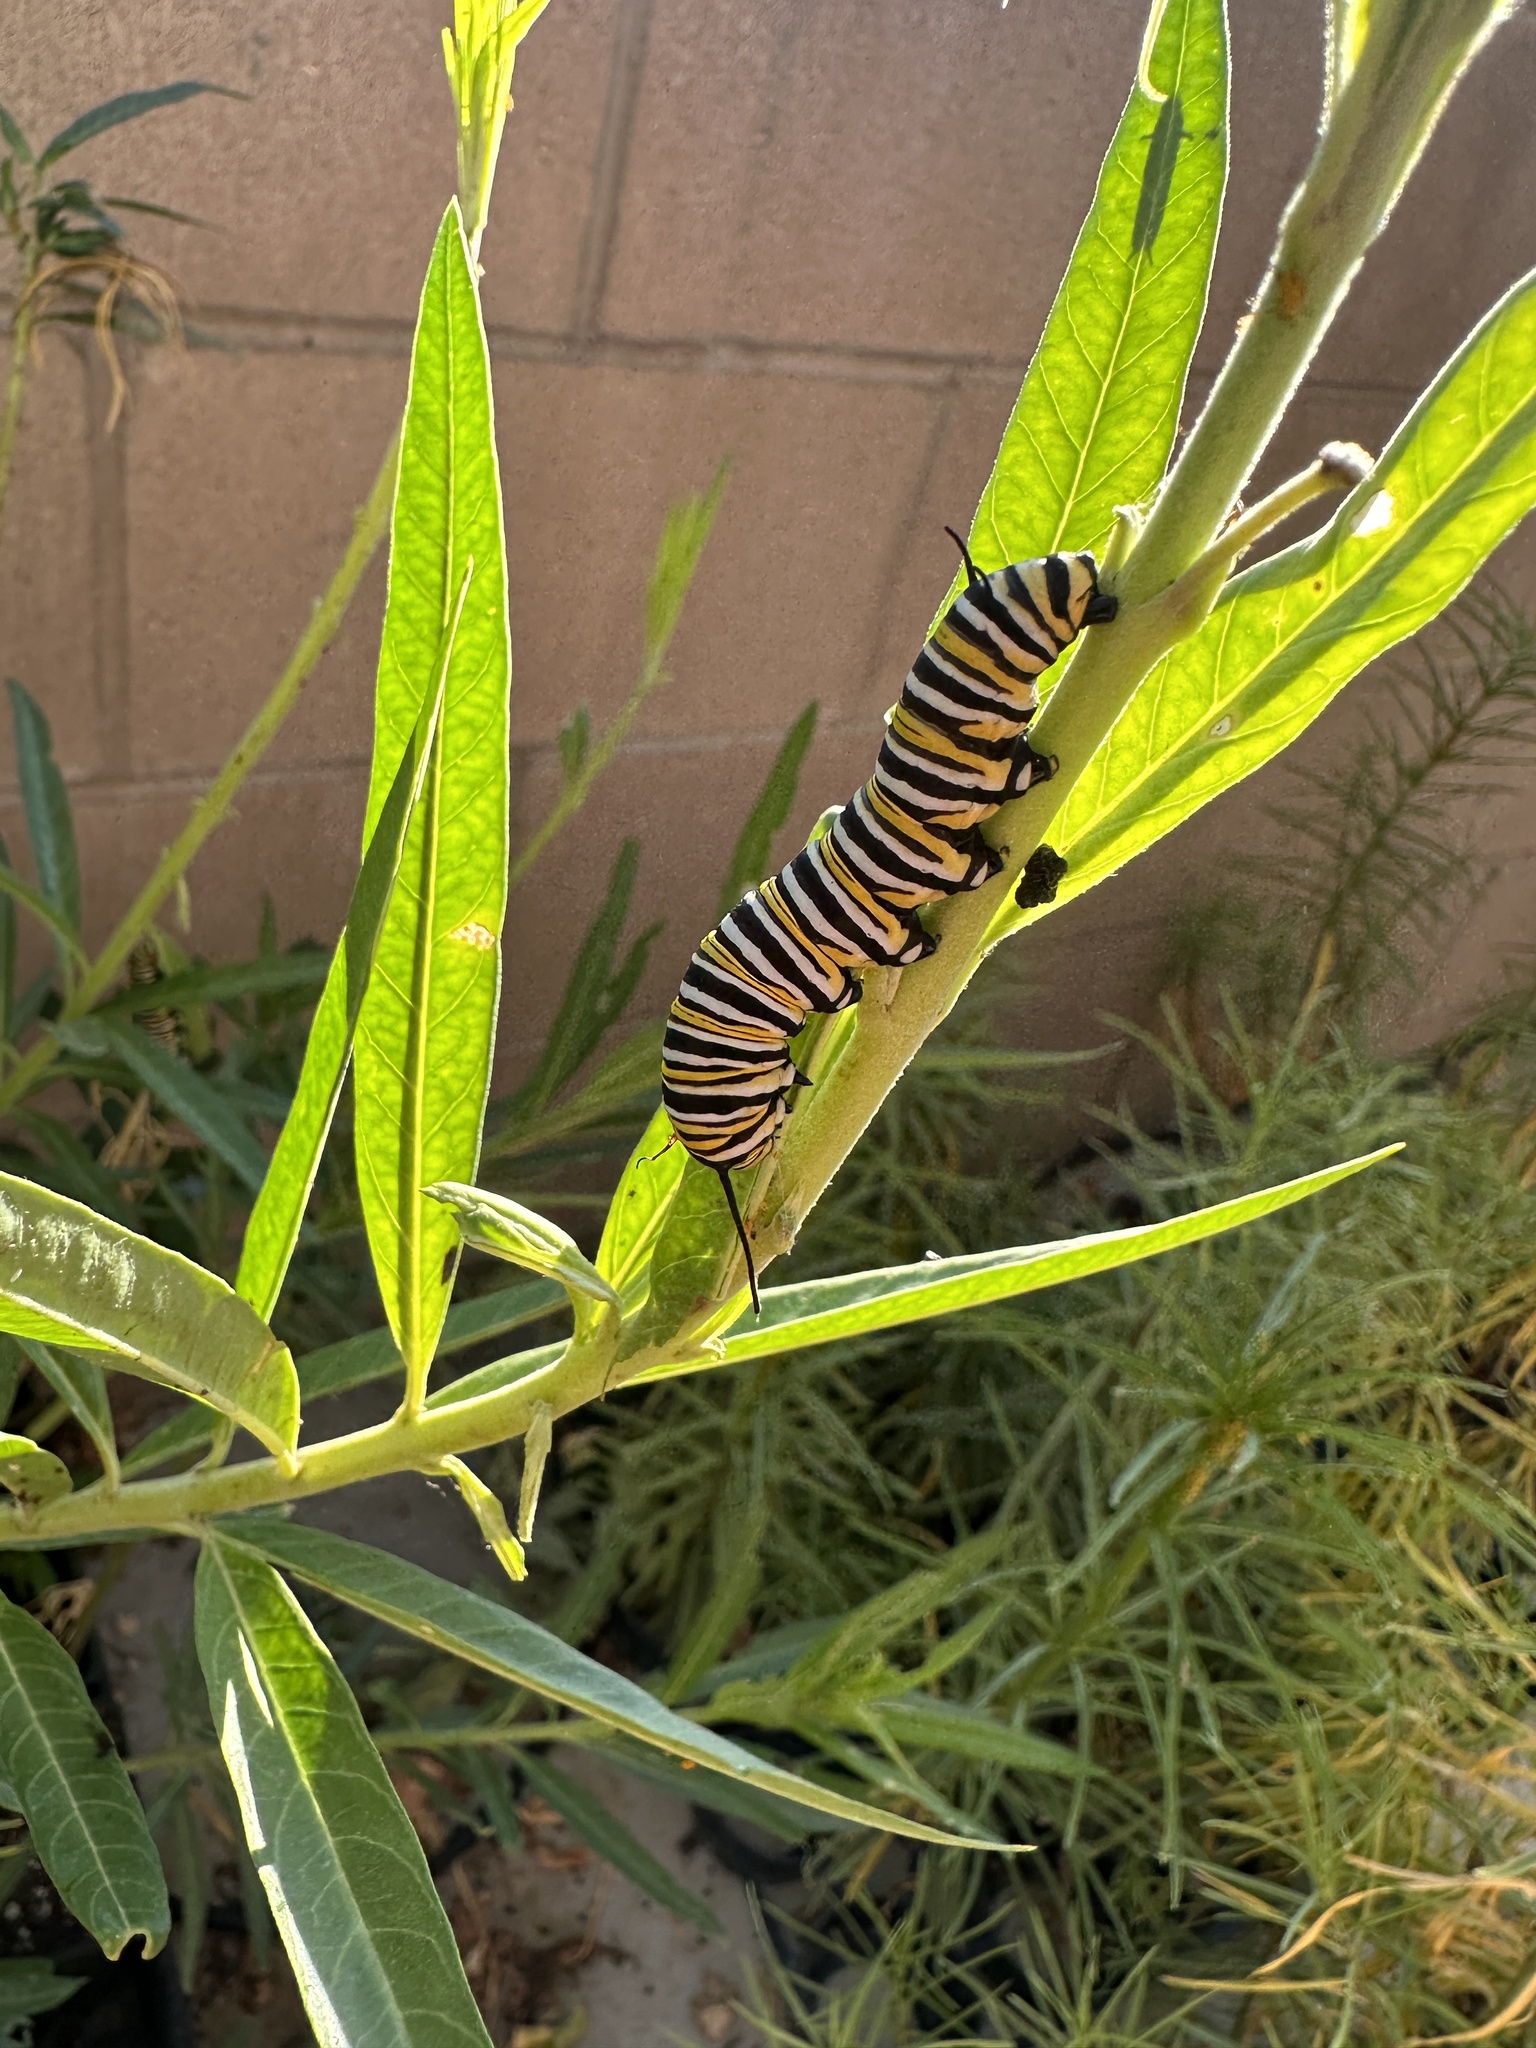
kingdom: Animalia
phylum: Arthropoda
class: Insecta
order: Lepidoptera
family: Nymphalidae
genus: Danaus
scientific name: Danaus plexippus
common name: Monarch
